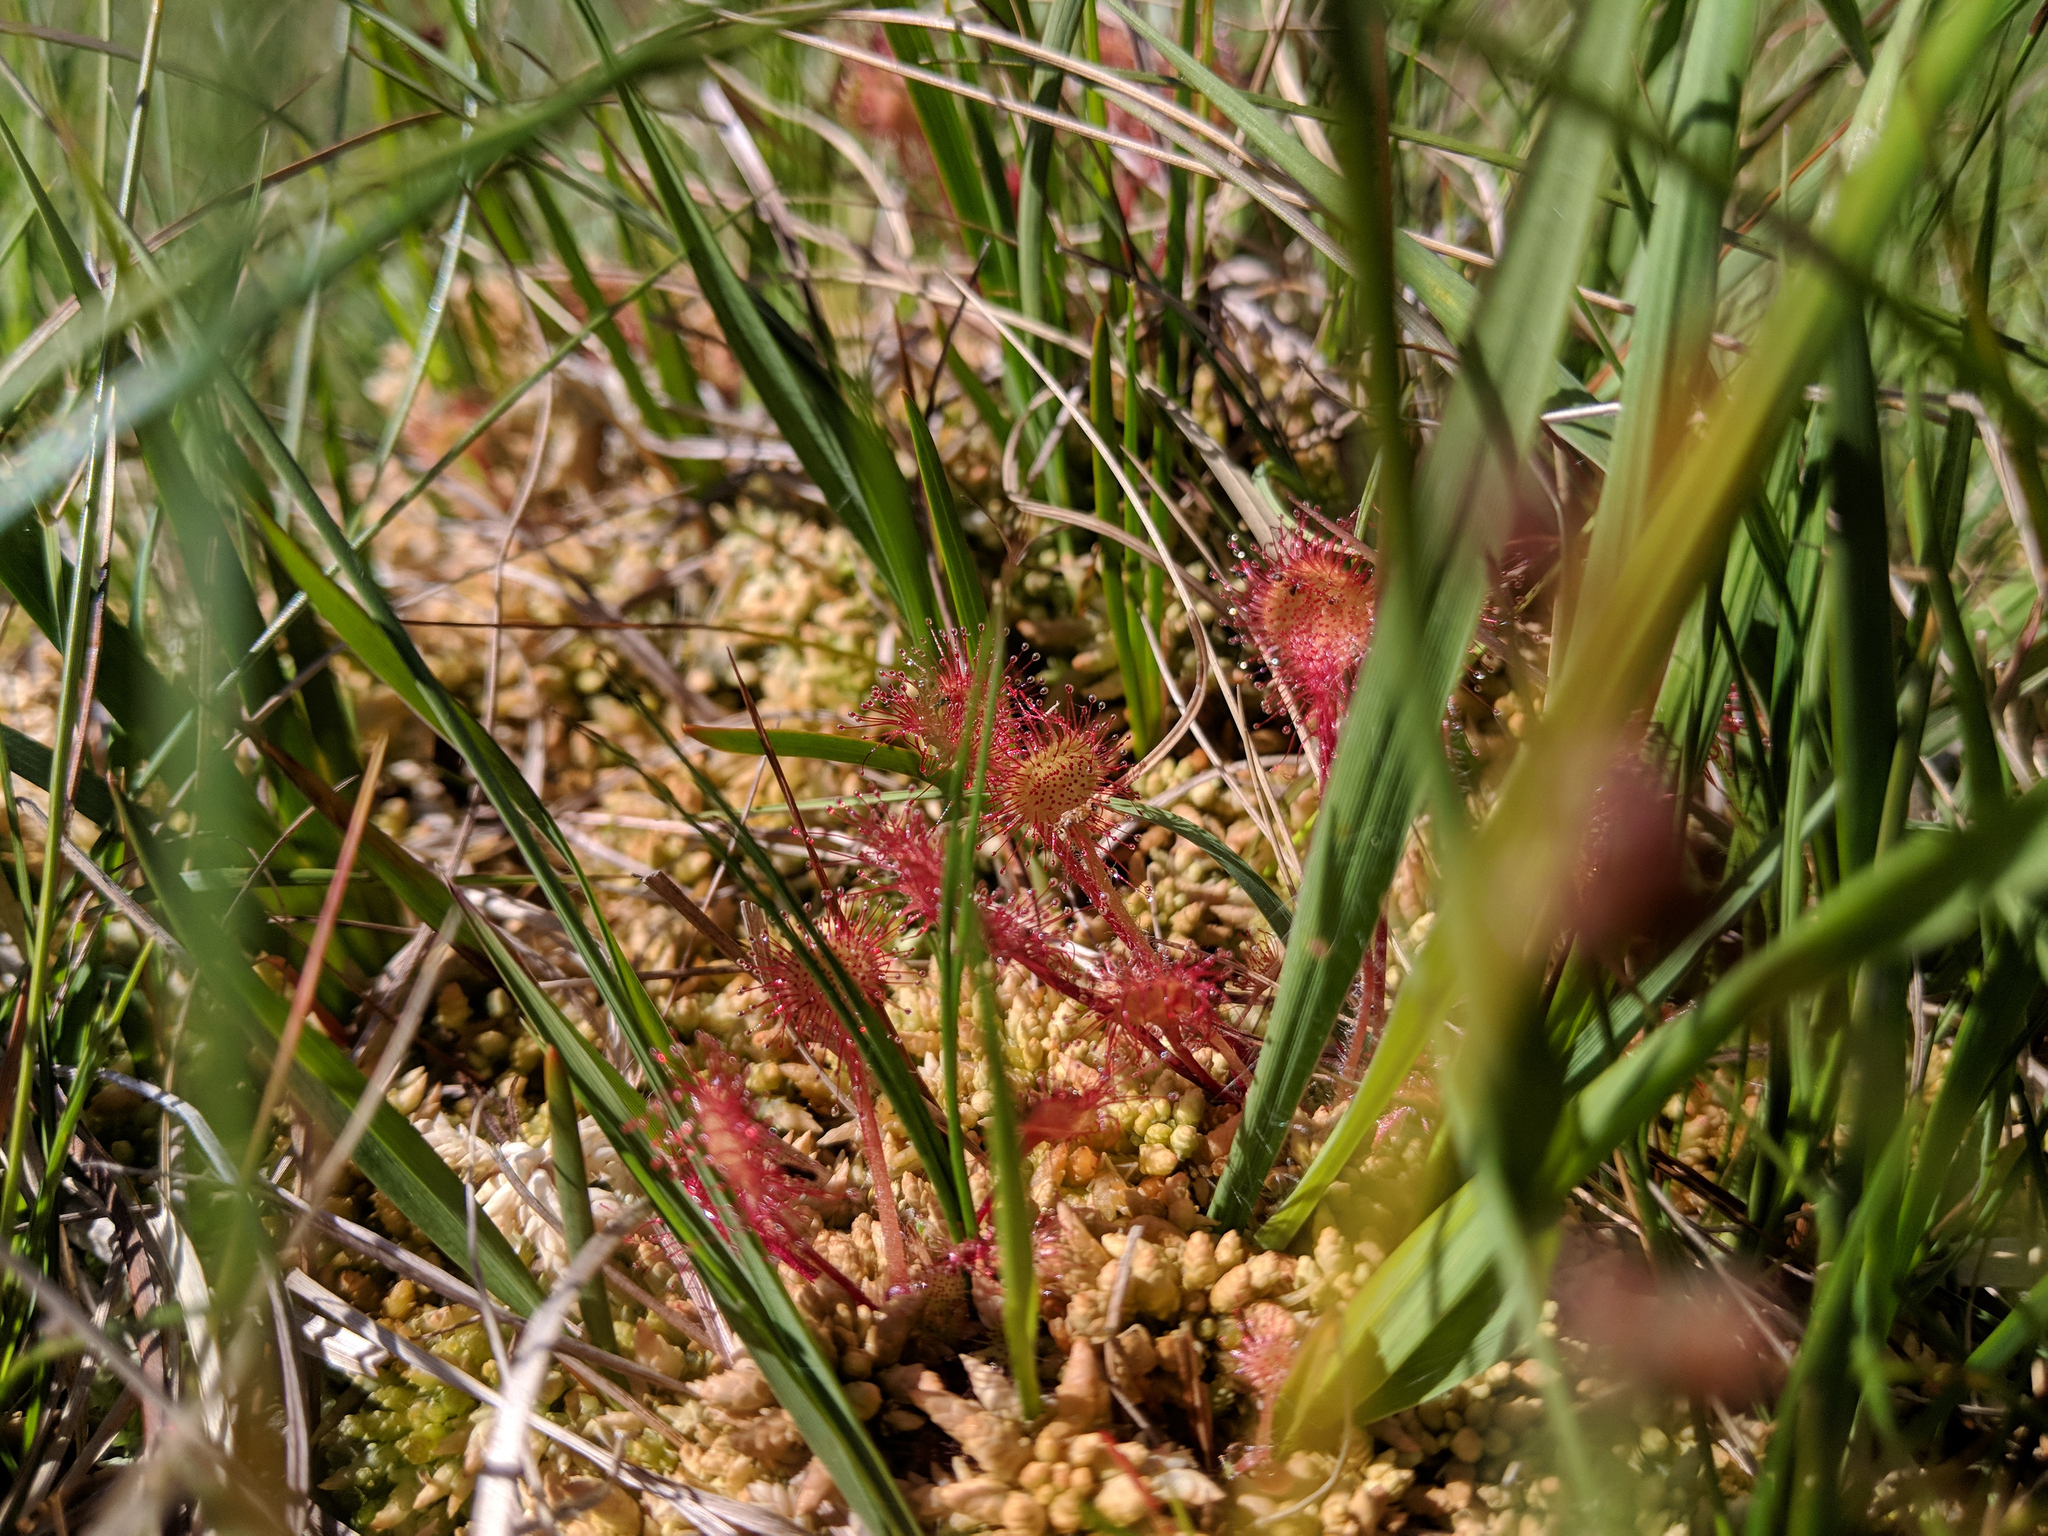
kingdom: Plantae
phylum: Tracheophyta
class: Magnoliopsida
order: Caryophyllales
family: Droseraceae
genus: Drosera
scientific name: Drosera rotundifolia
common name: Round-leaved sundew
